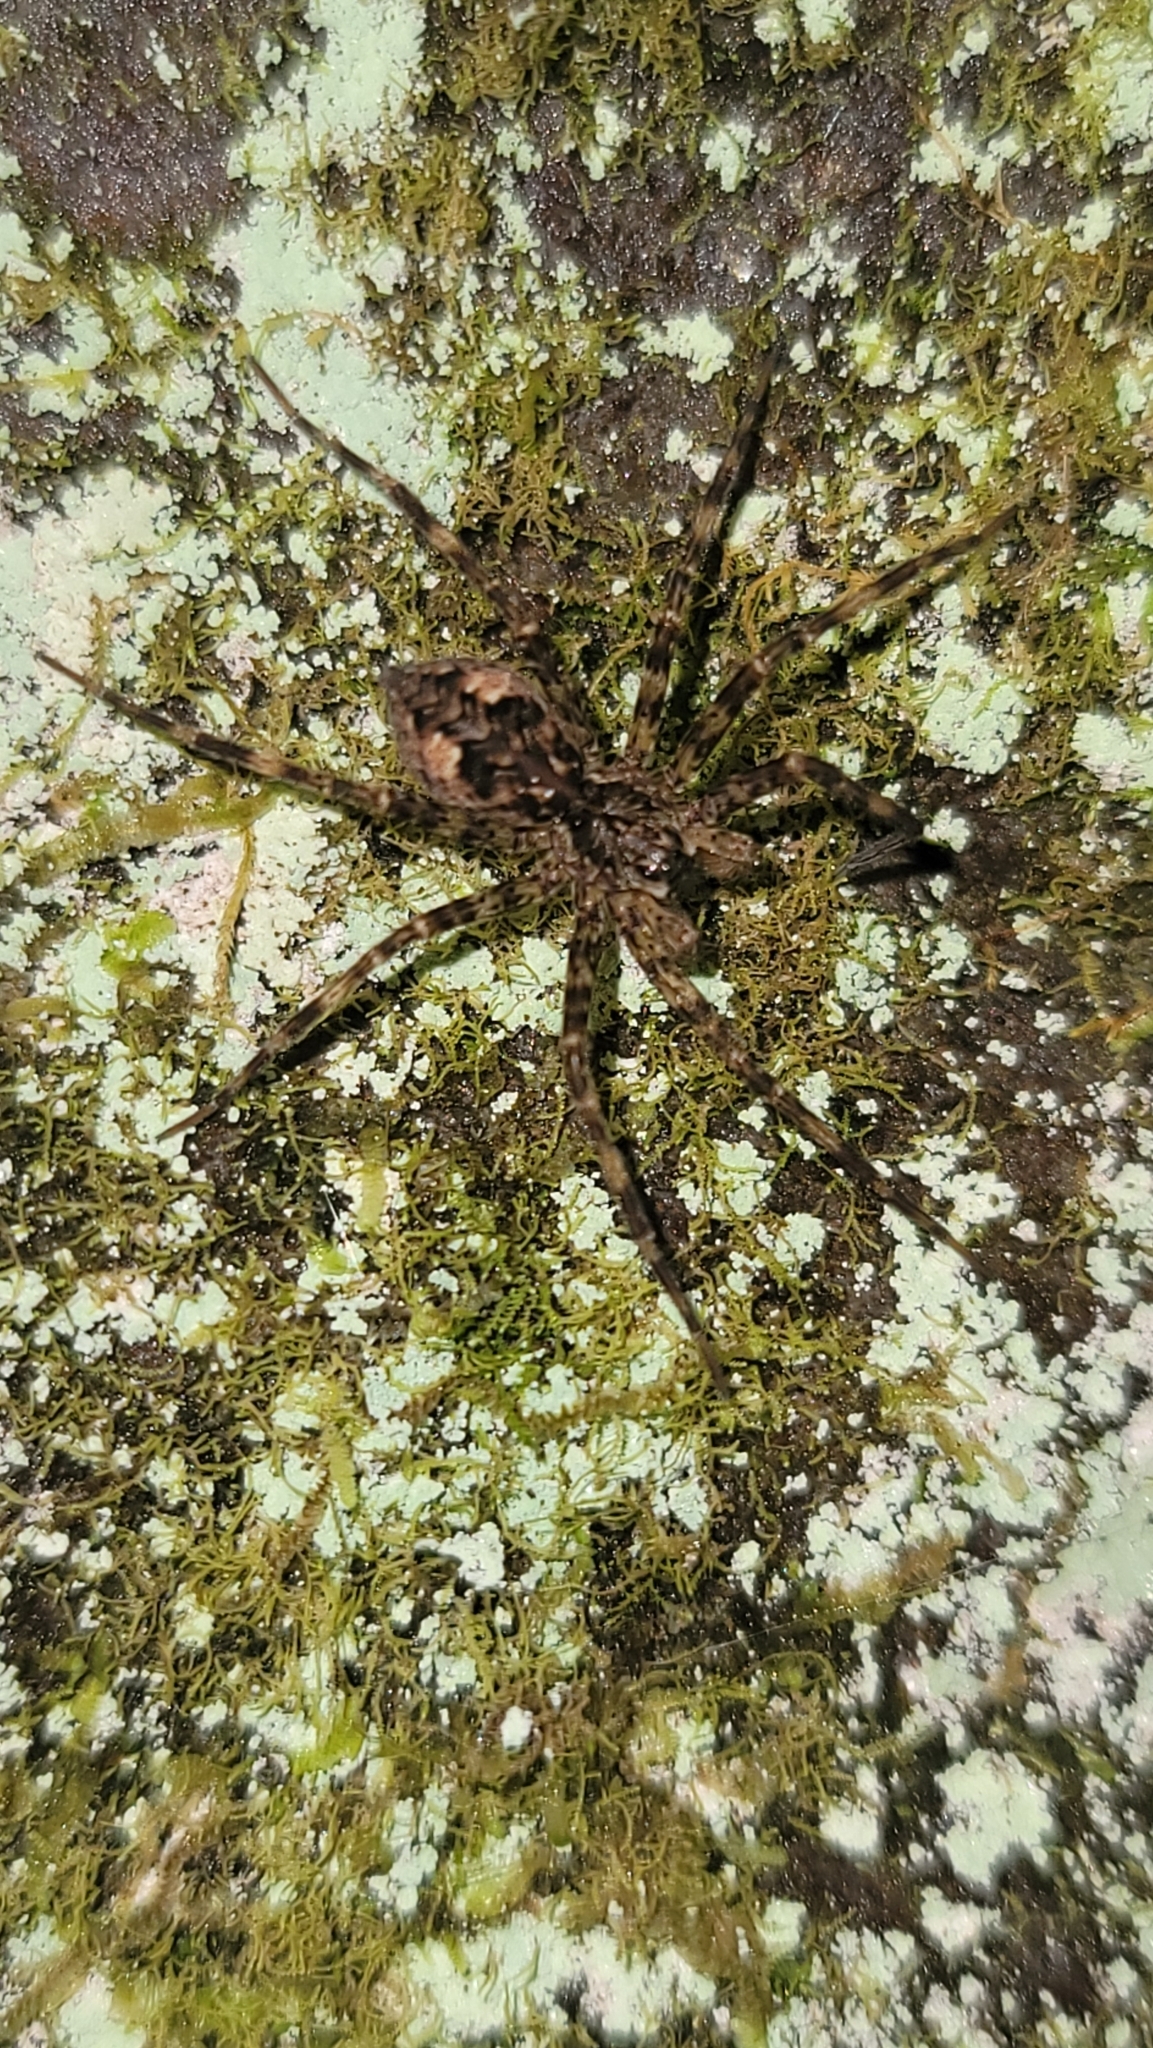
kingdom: Animalia
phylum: Arthropoda
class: Arachnida
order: Araneae
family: Pisauridae
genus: Dolomedes
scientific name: Dolomedes tenebrosus
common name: Dark fishing spider
